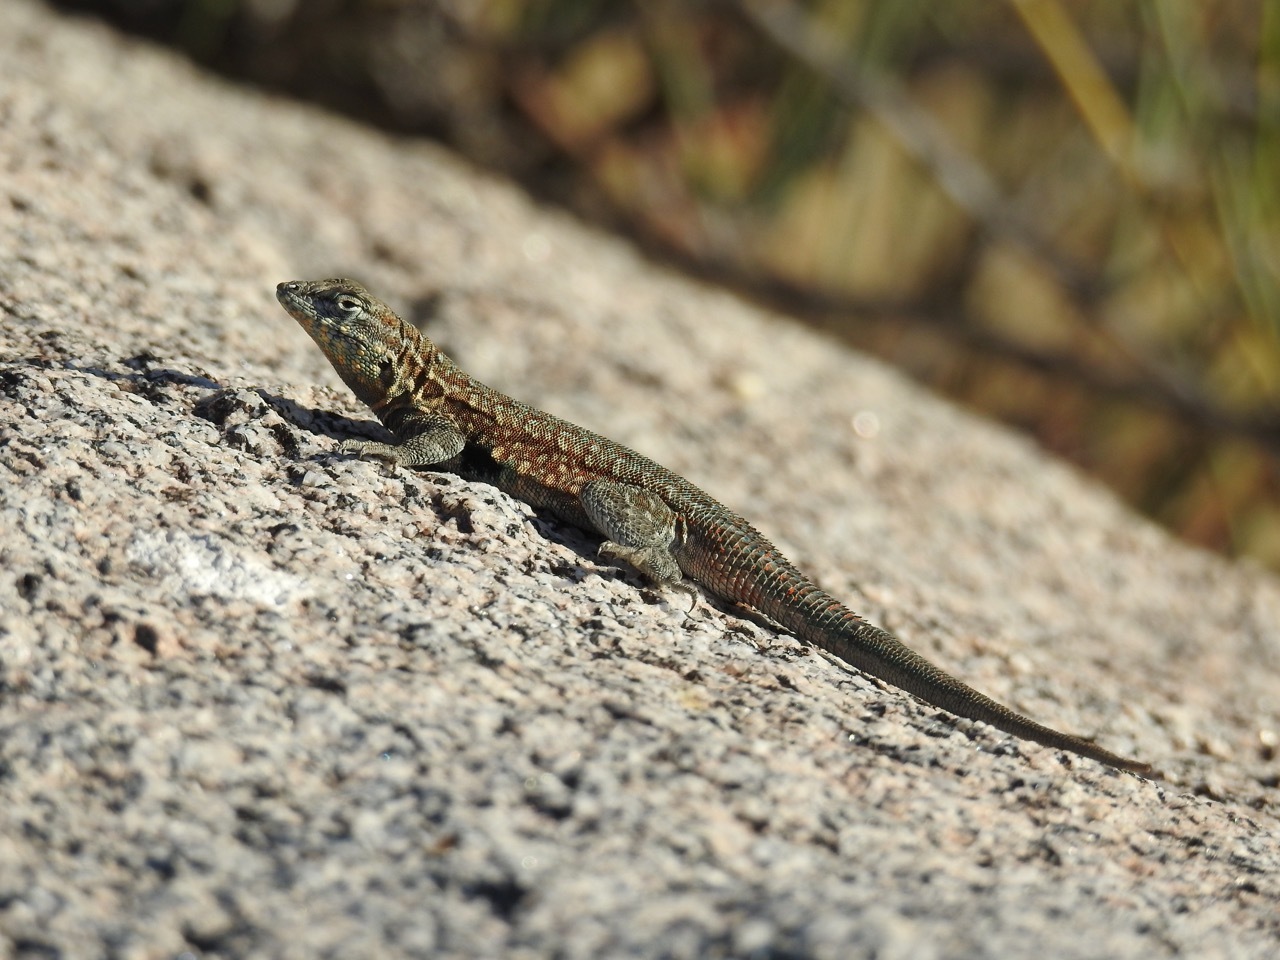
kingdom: Animalia
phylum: Chordata
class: Squamata
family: Phrynosomatidae
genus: Uta
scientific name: Uta stansburiana
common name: Side-blotched lizard
